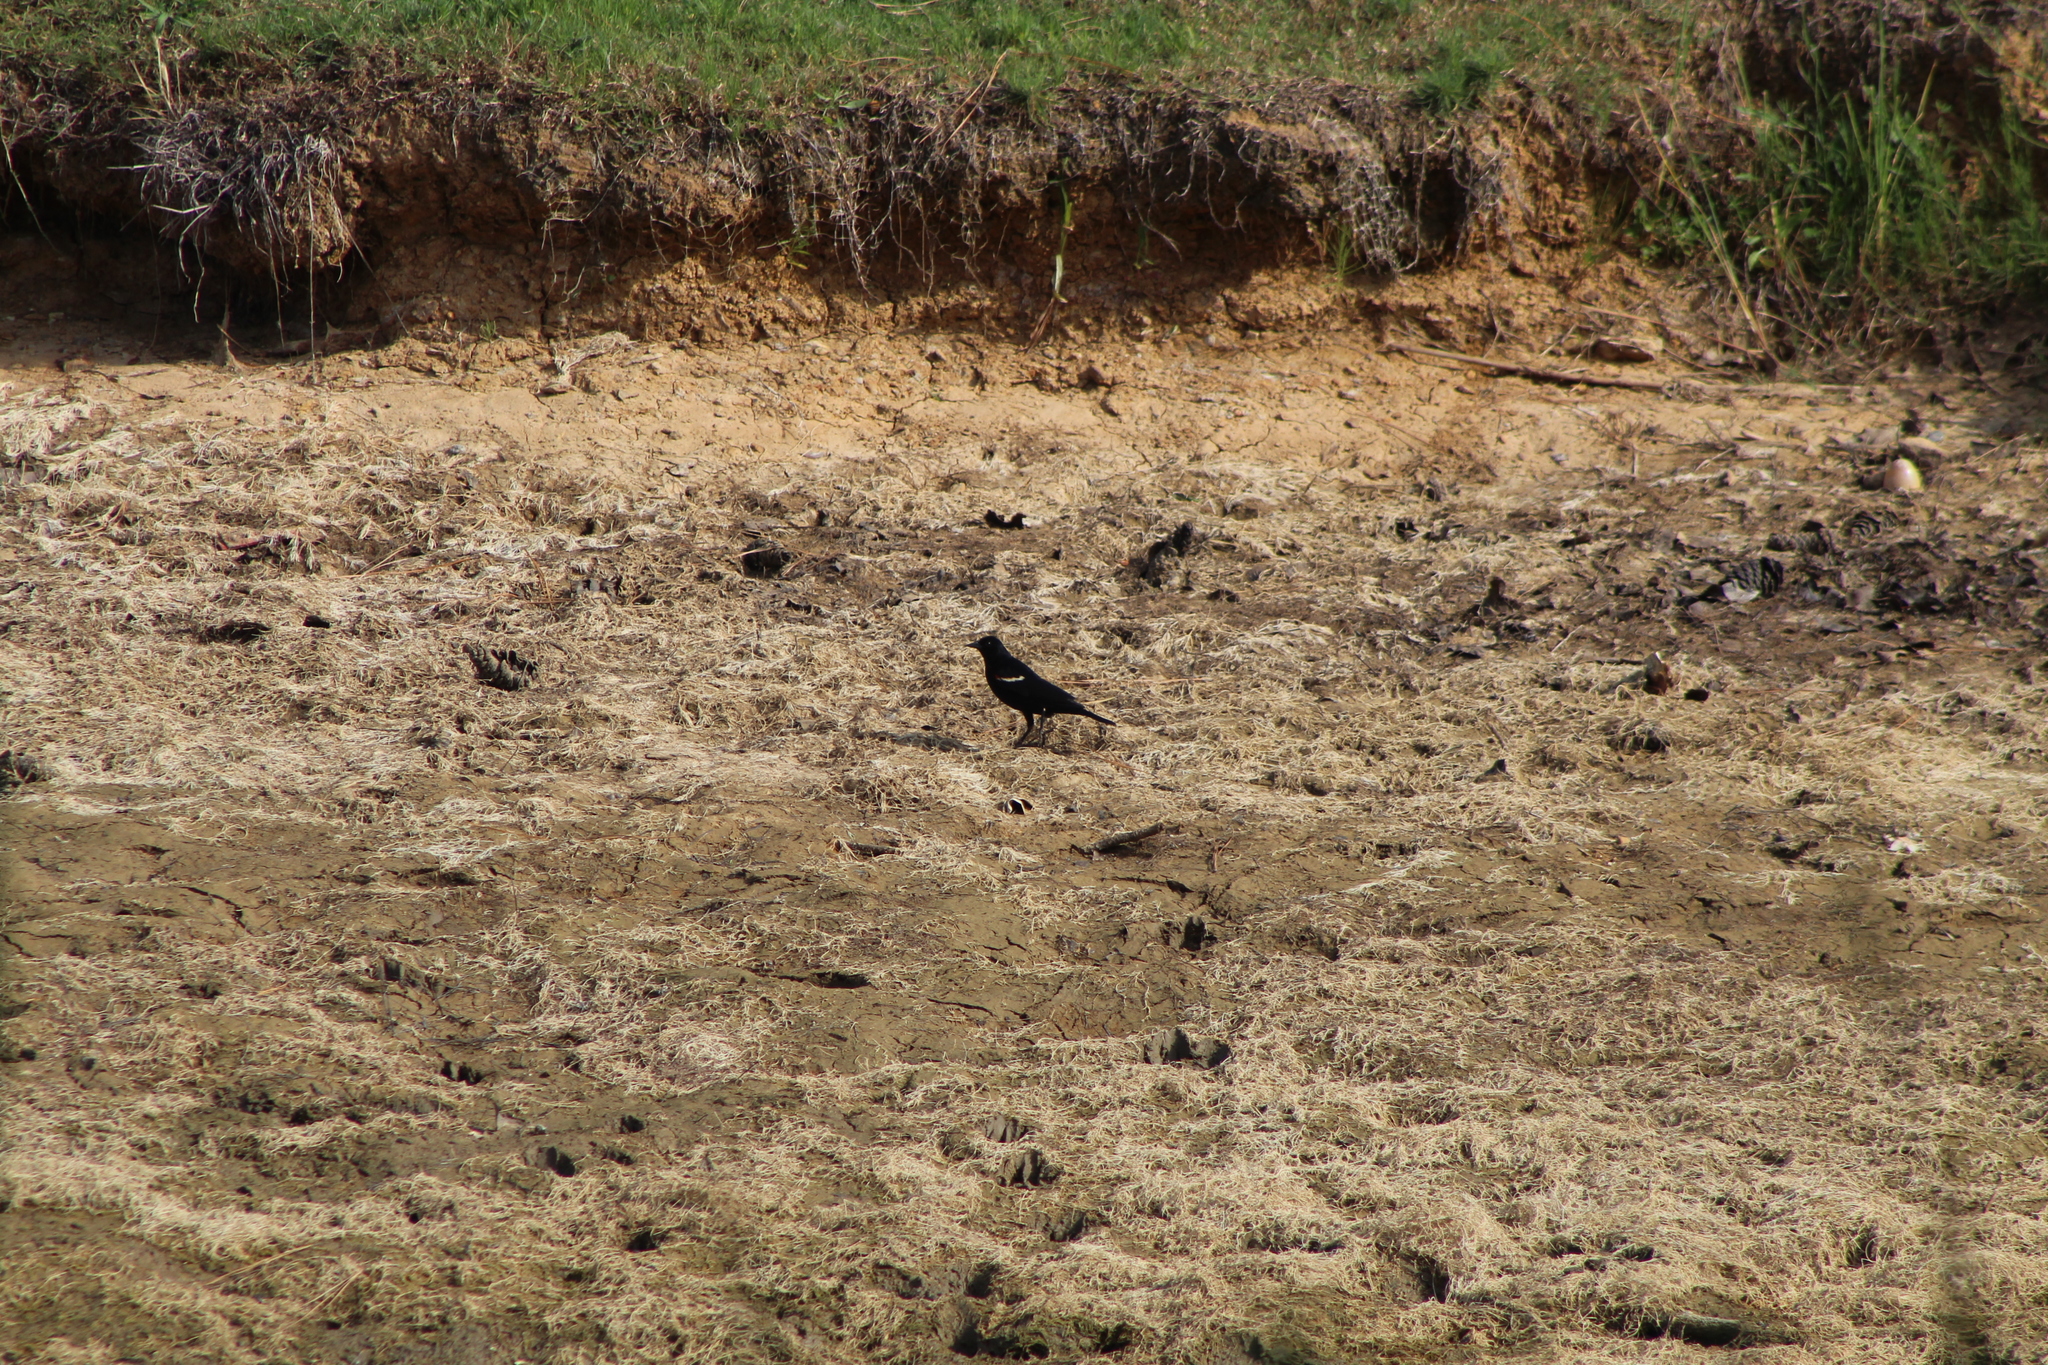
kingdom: Animalia
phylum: Chordata
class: Aves
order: Passeriformes
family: Icteridae
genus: Agelaius
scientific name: Agelaius phoeniceus
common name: Red-winged blackbird
